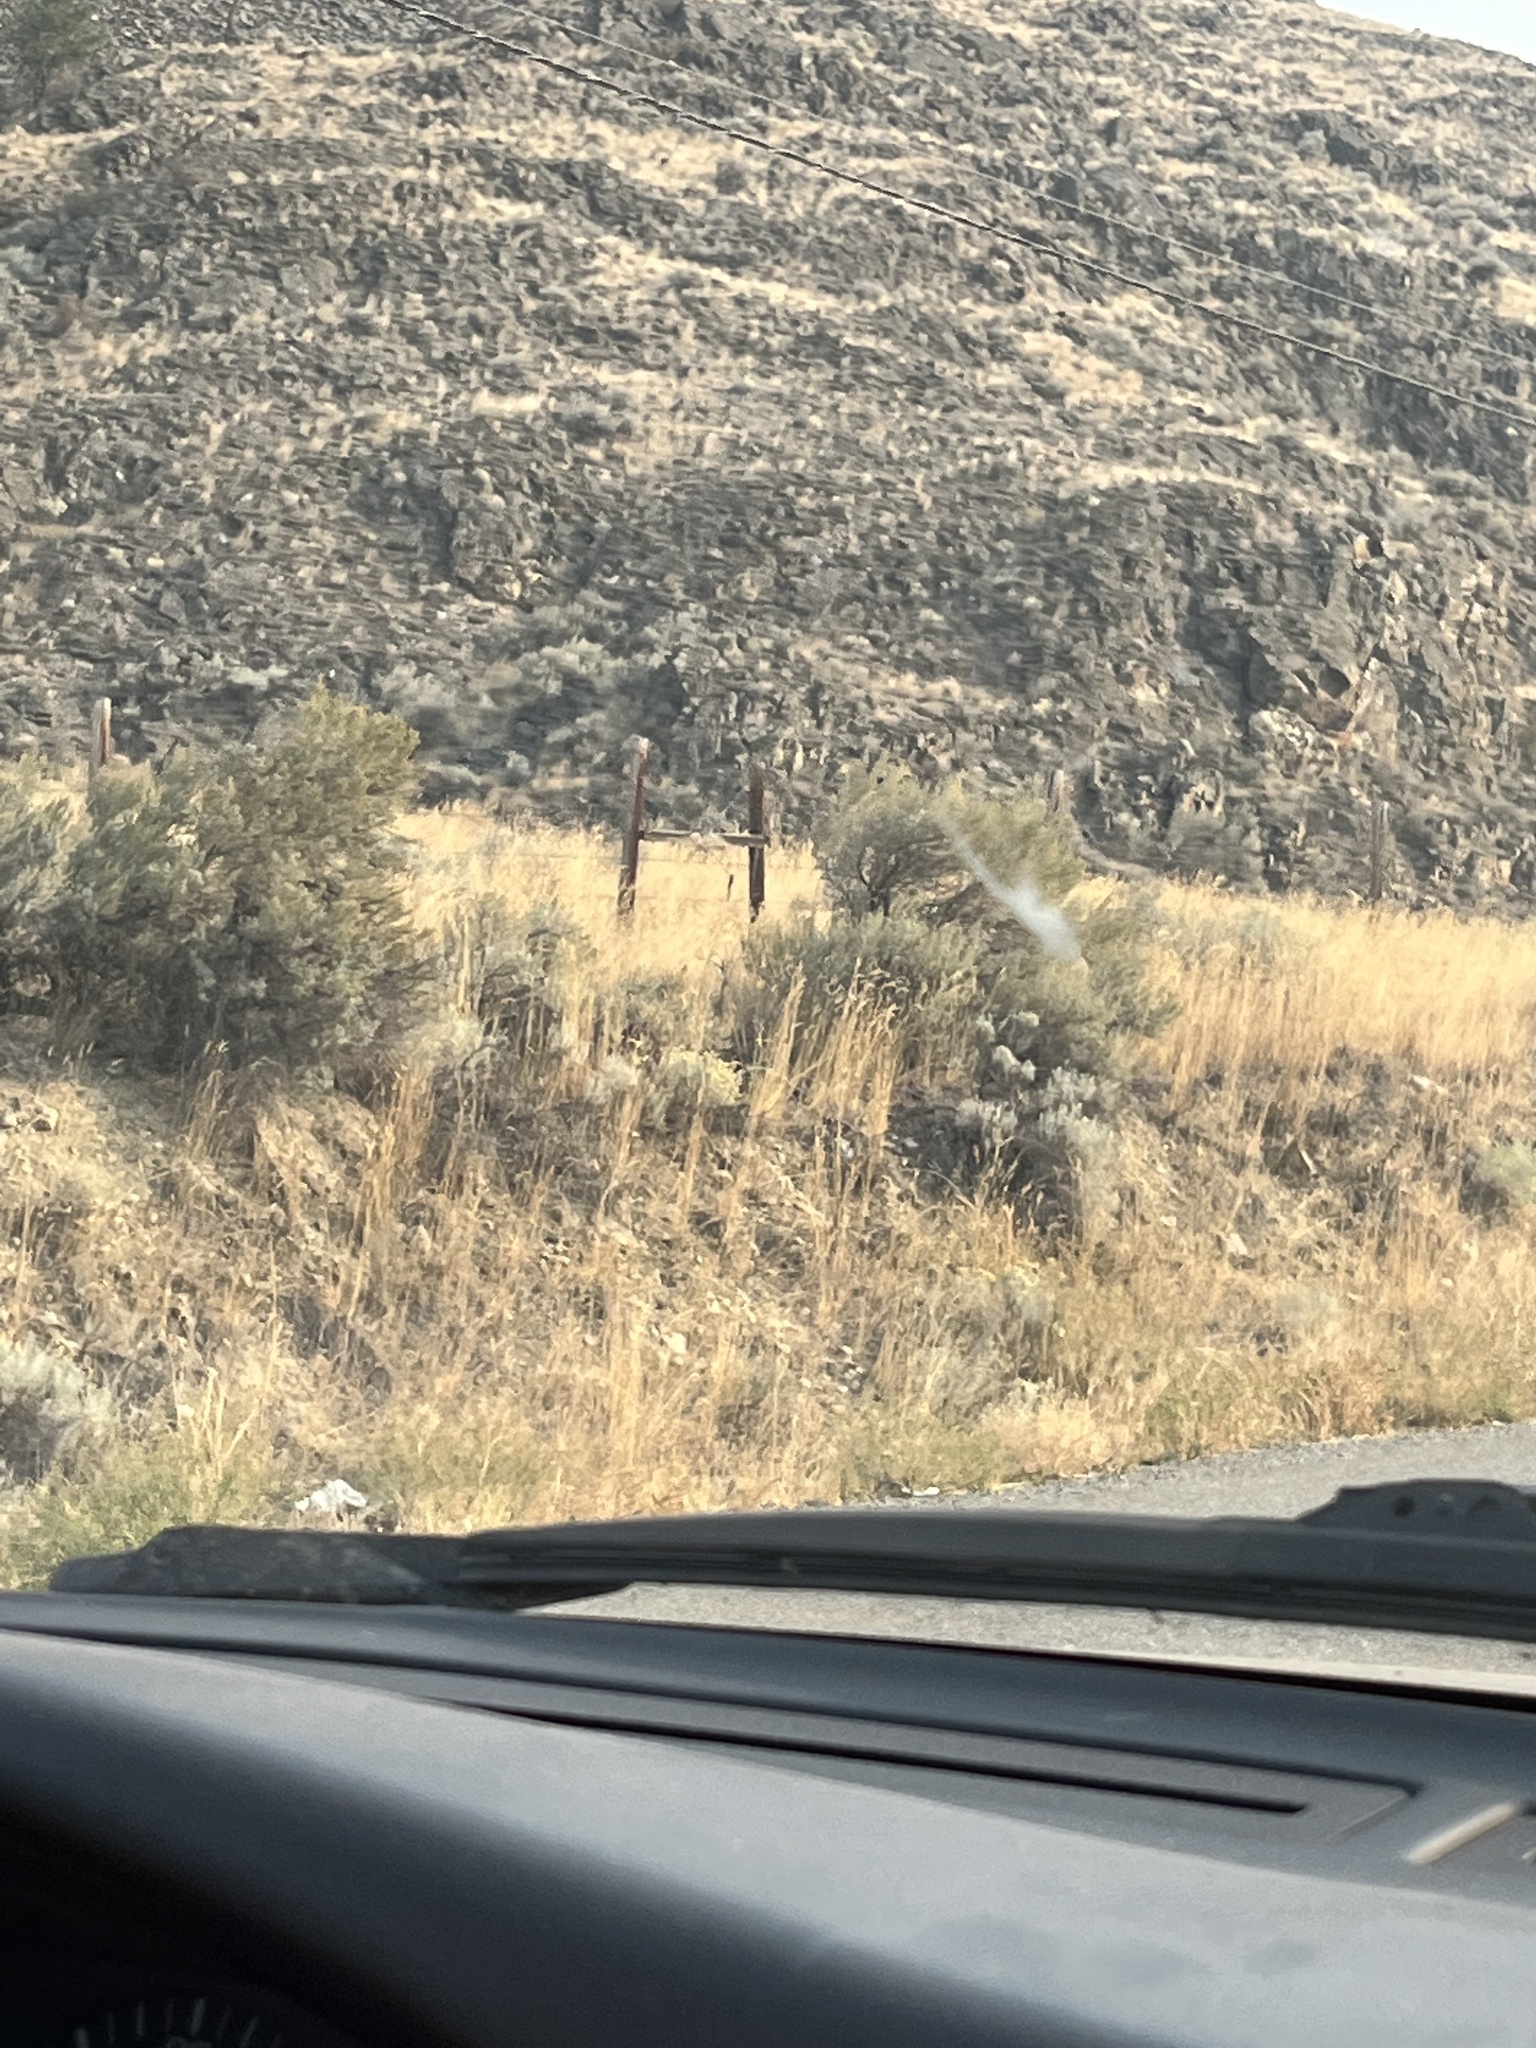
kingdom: Plantae
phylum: Tracheophyta
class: Magnoliopsida
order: Asterales
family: Asteraceae
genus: Artemisia
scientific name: Artemisia tridentata
